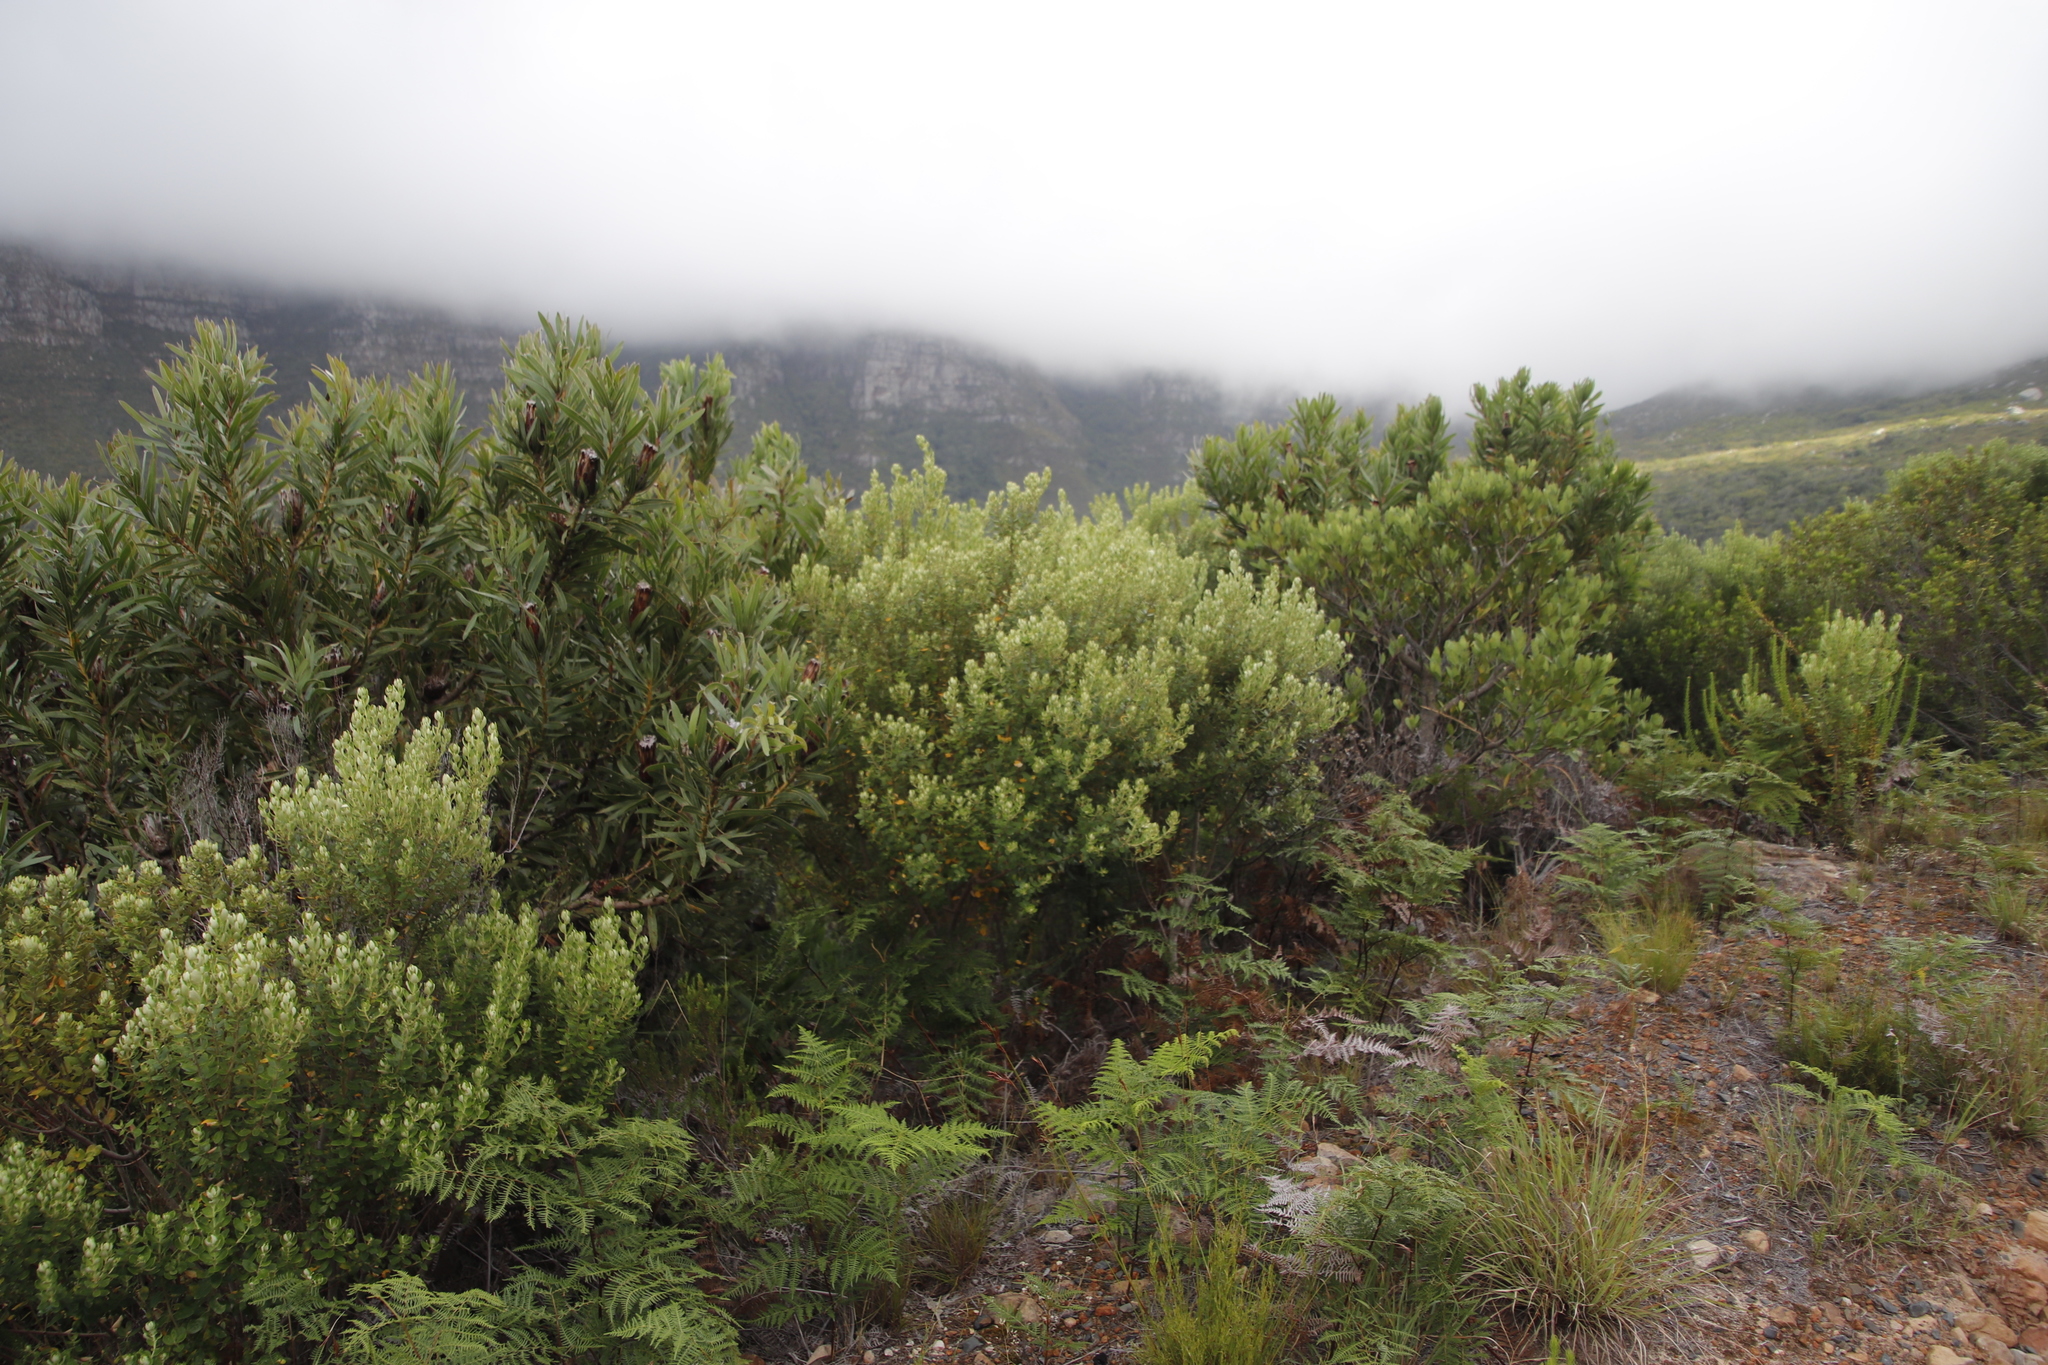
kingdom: Plantae
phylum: Tracheophyta
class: Magnoliopsida
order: Rosales
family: Rhamnaceae
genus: Phylica
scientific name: Phylica buxifolia
